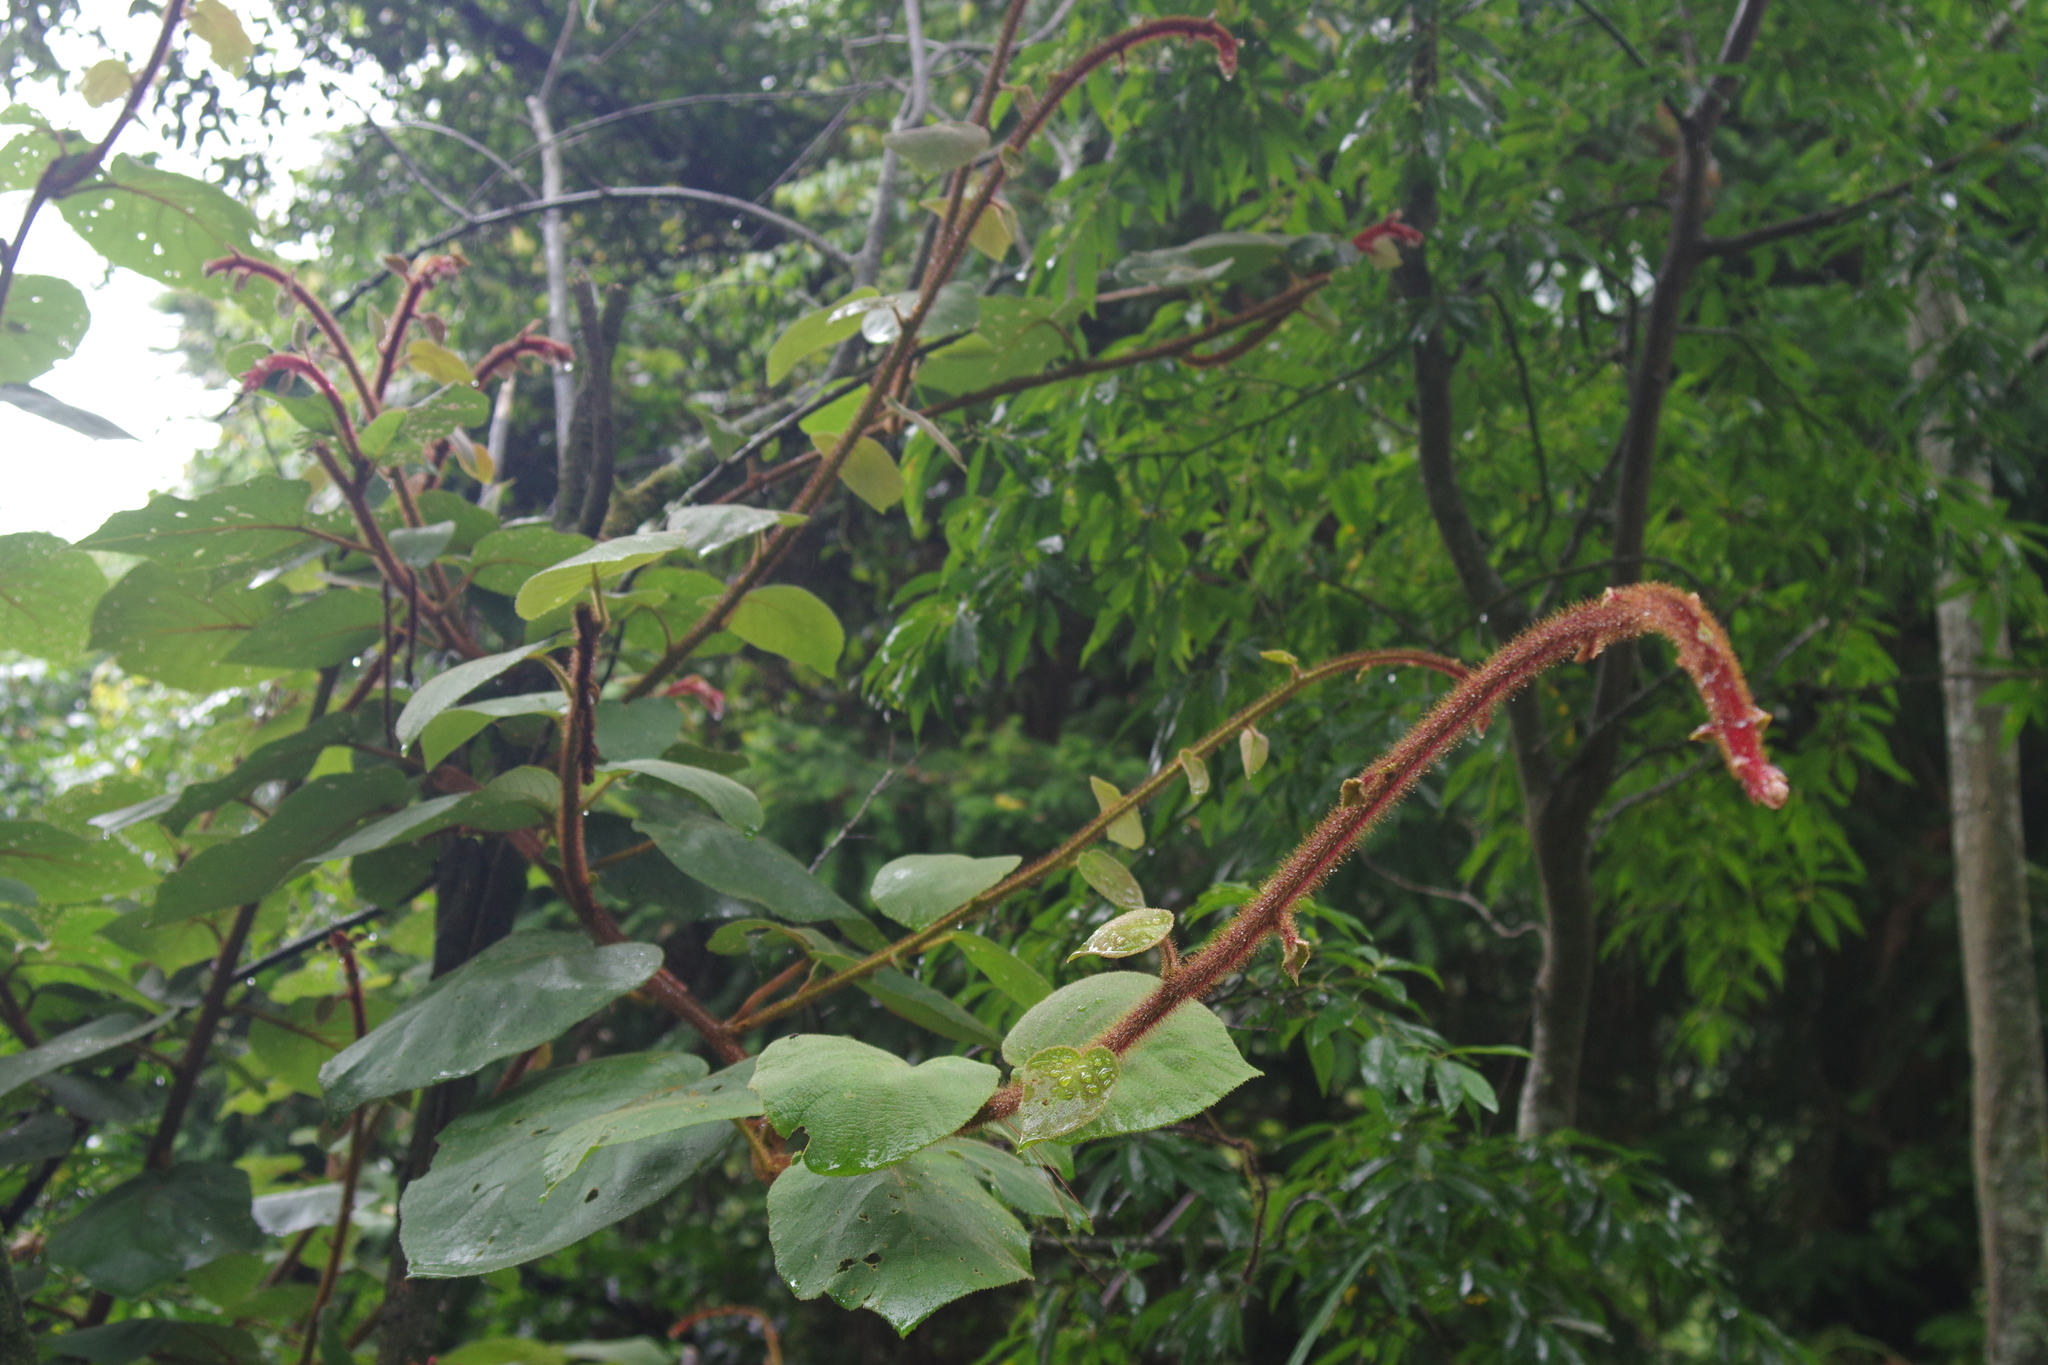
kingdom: Plantae
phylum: Tracheophyta
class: Magnoliopsida
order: Ericales
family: Actinidiaceae
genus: Actinidia
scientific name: Actinidia chinensis
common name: Kiwi
